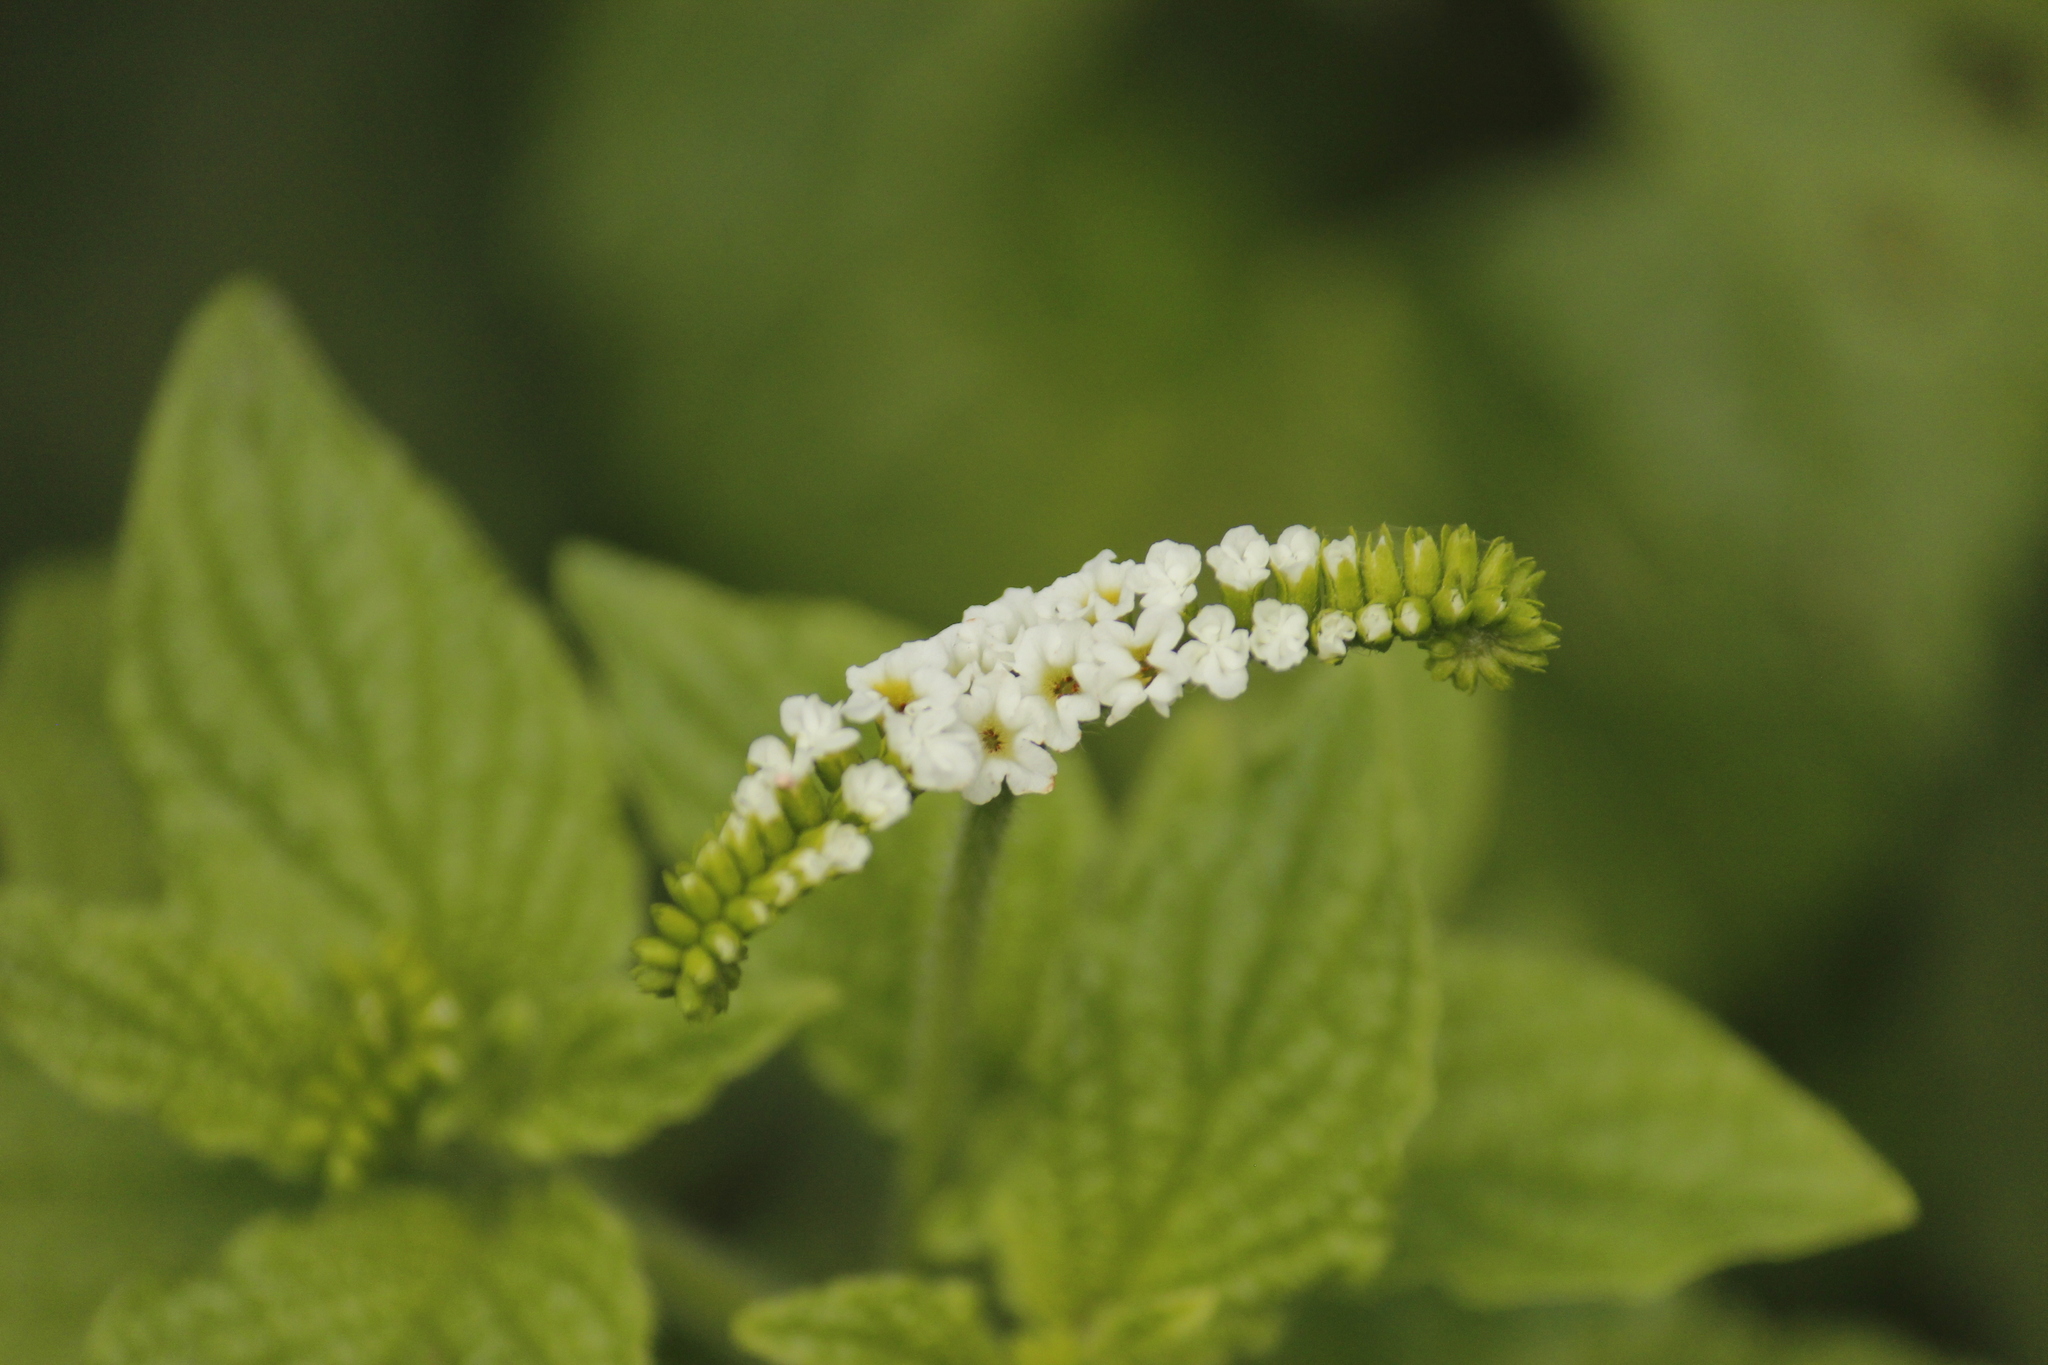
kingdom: Plantae
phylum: Tracheophyta
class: Magnoliopsida
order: Boraginales
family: Heliotropiaceae
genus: Heliotropium
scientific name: Heliotropium angiospermum
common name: Eye bright
